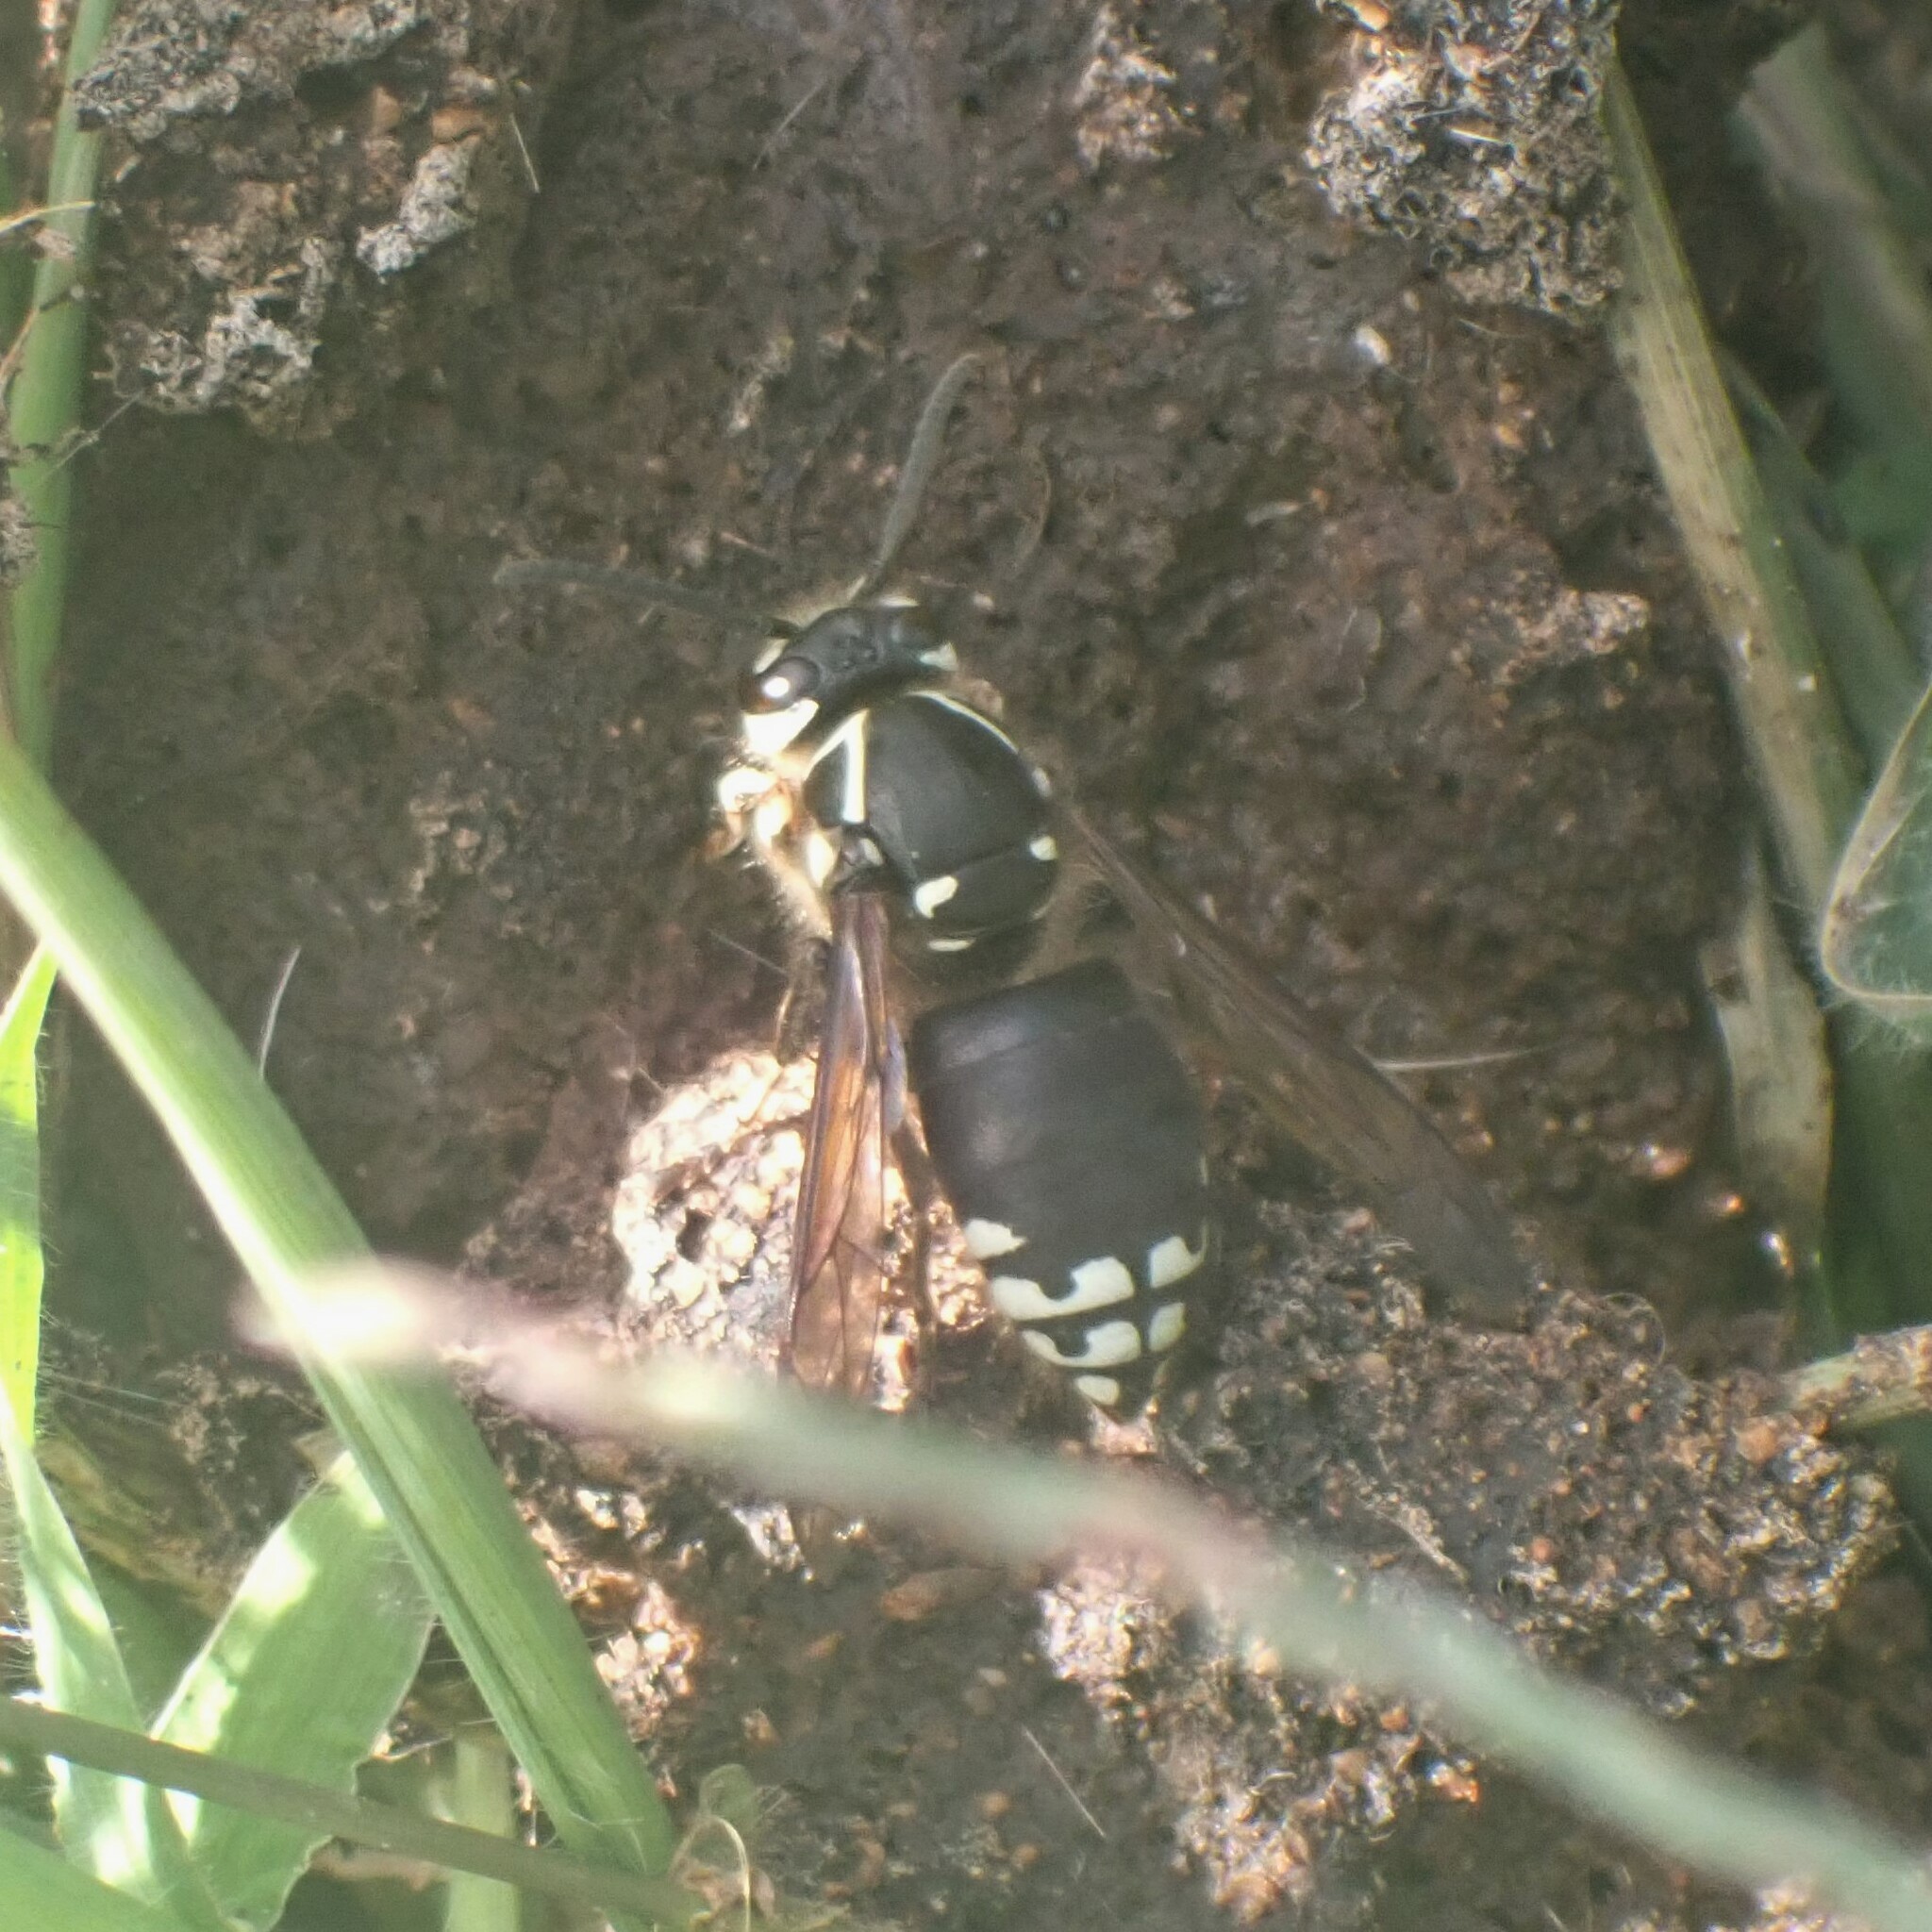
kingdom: Animalia
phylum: Arthropoda
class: Insecta
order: Hymenoptera
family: Vespidae
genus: Dolichovespula
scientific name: Dolichovespula maculata
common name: Bald-faced hornet
